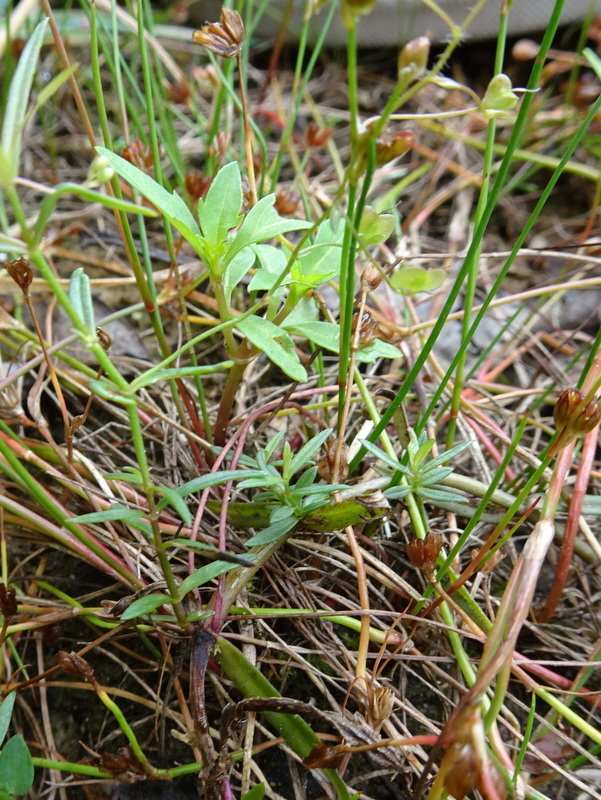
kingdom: Plantae
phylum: Tracheophyta
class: Magnoliopsida
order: Lamiales
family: Plantaginaceae
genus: Veronica
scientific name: Veronica scutellata
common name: Marsh speedwell
